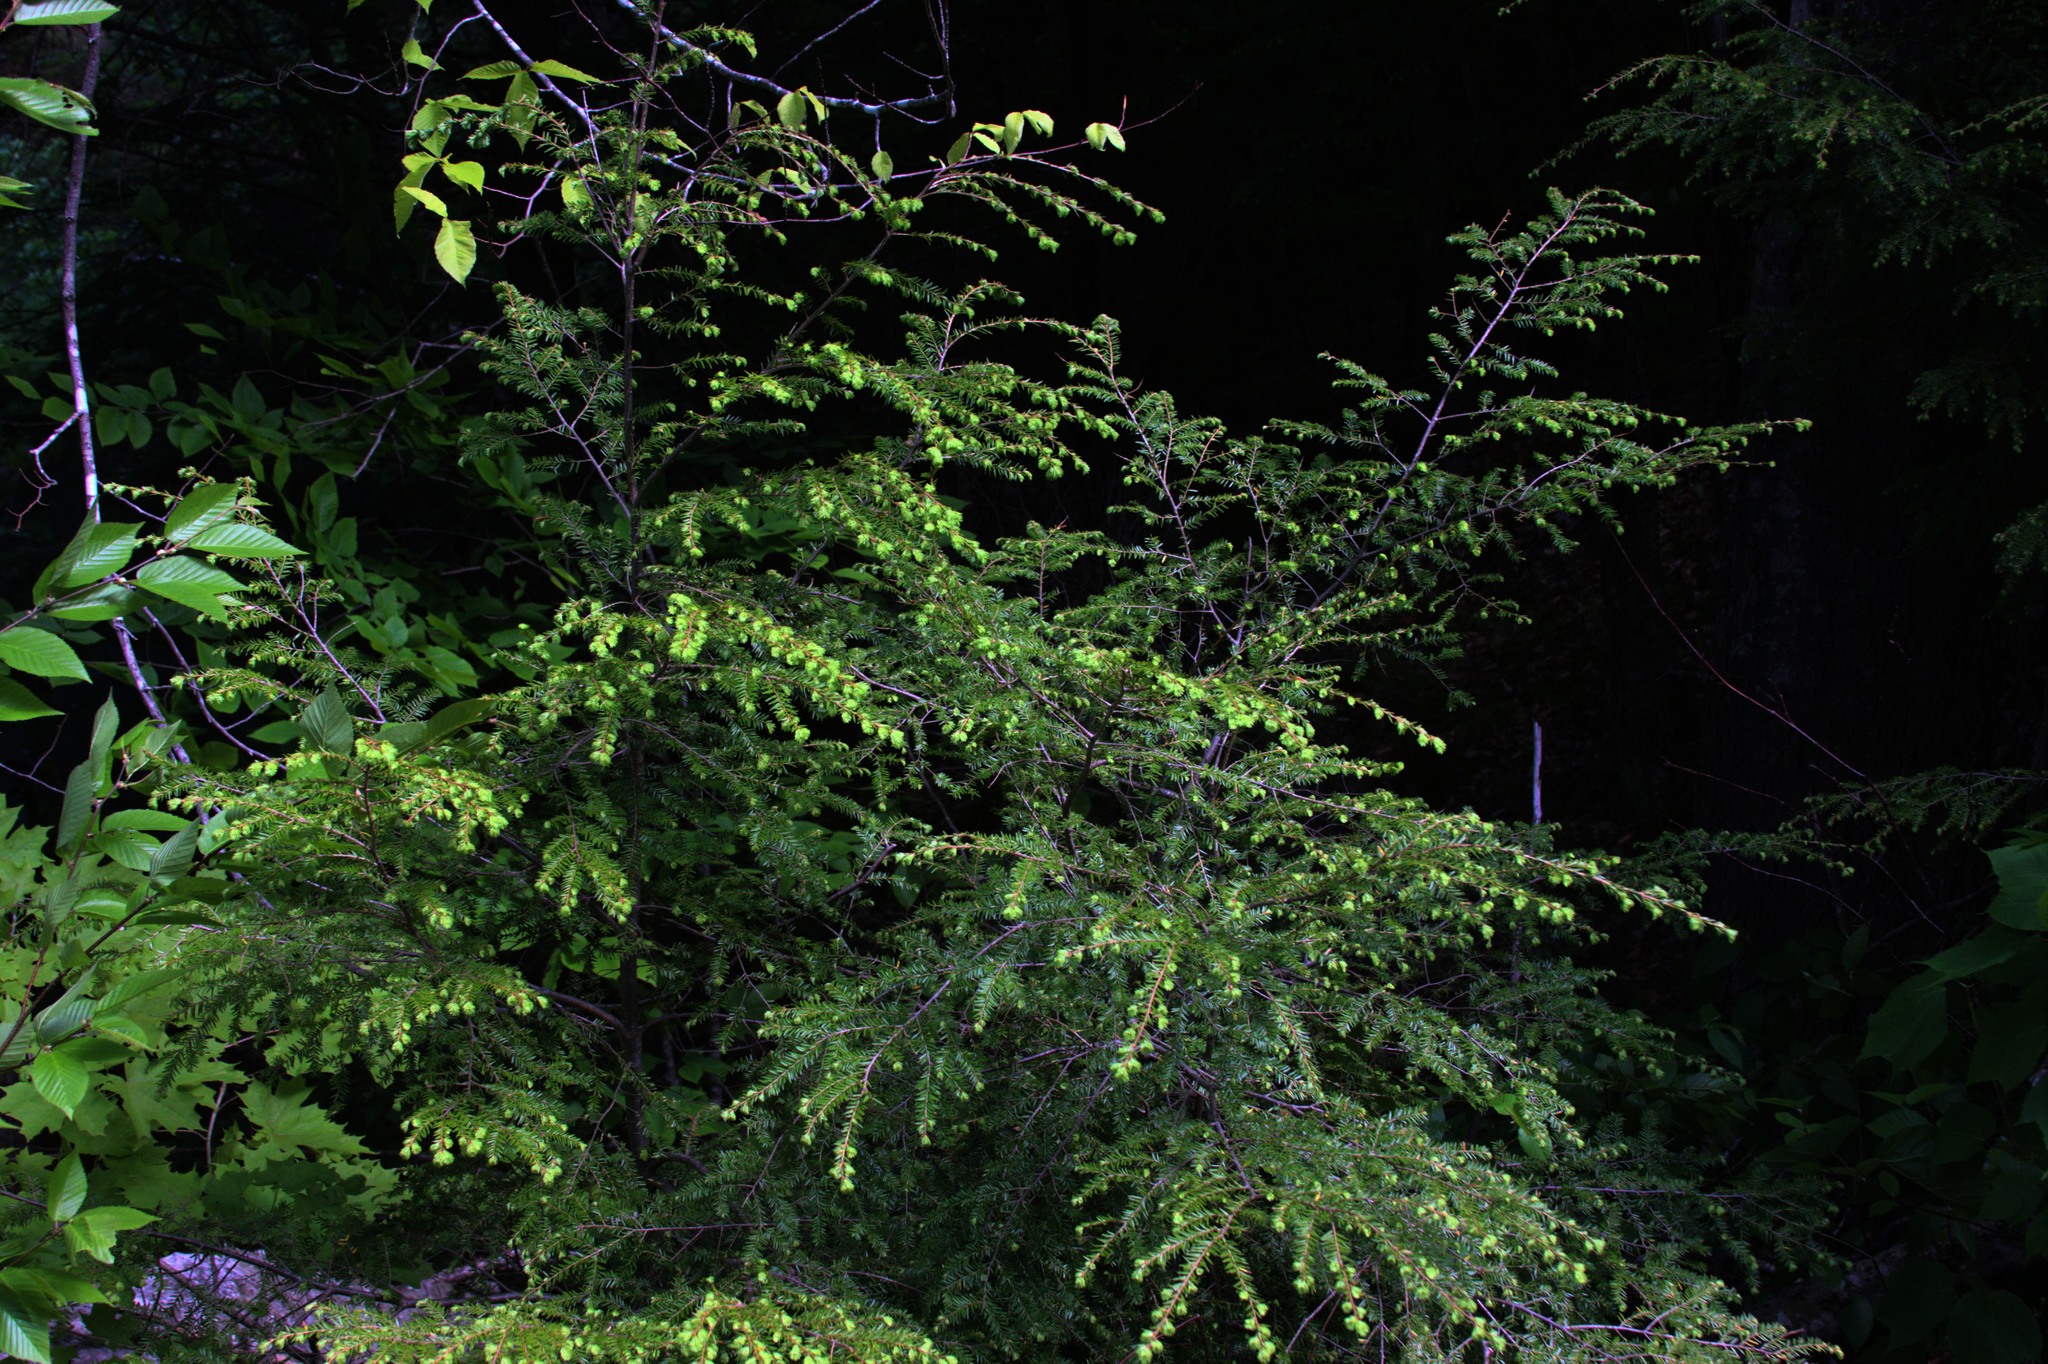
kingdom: Plantae
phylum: Tracheophyta
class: Pinopsida
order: Pinales
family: Pinaceae
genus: Tsuga
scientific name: Tsuga canadensis
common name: Eastern hemlock
